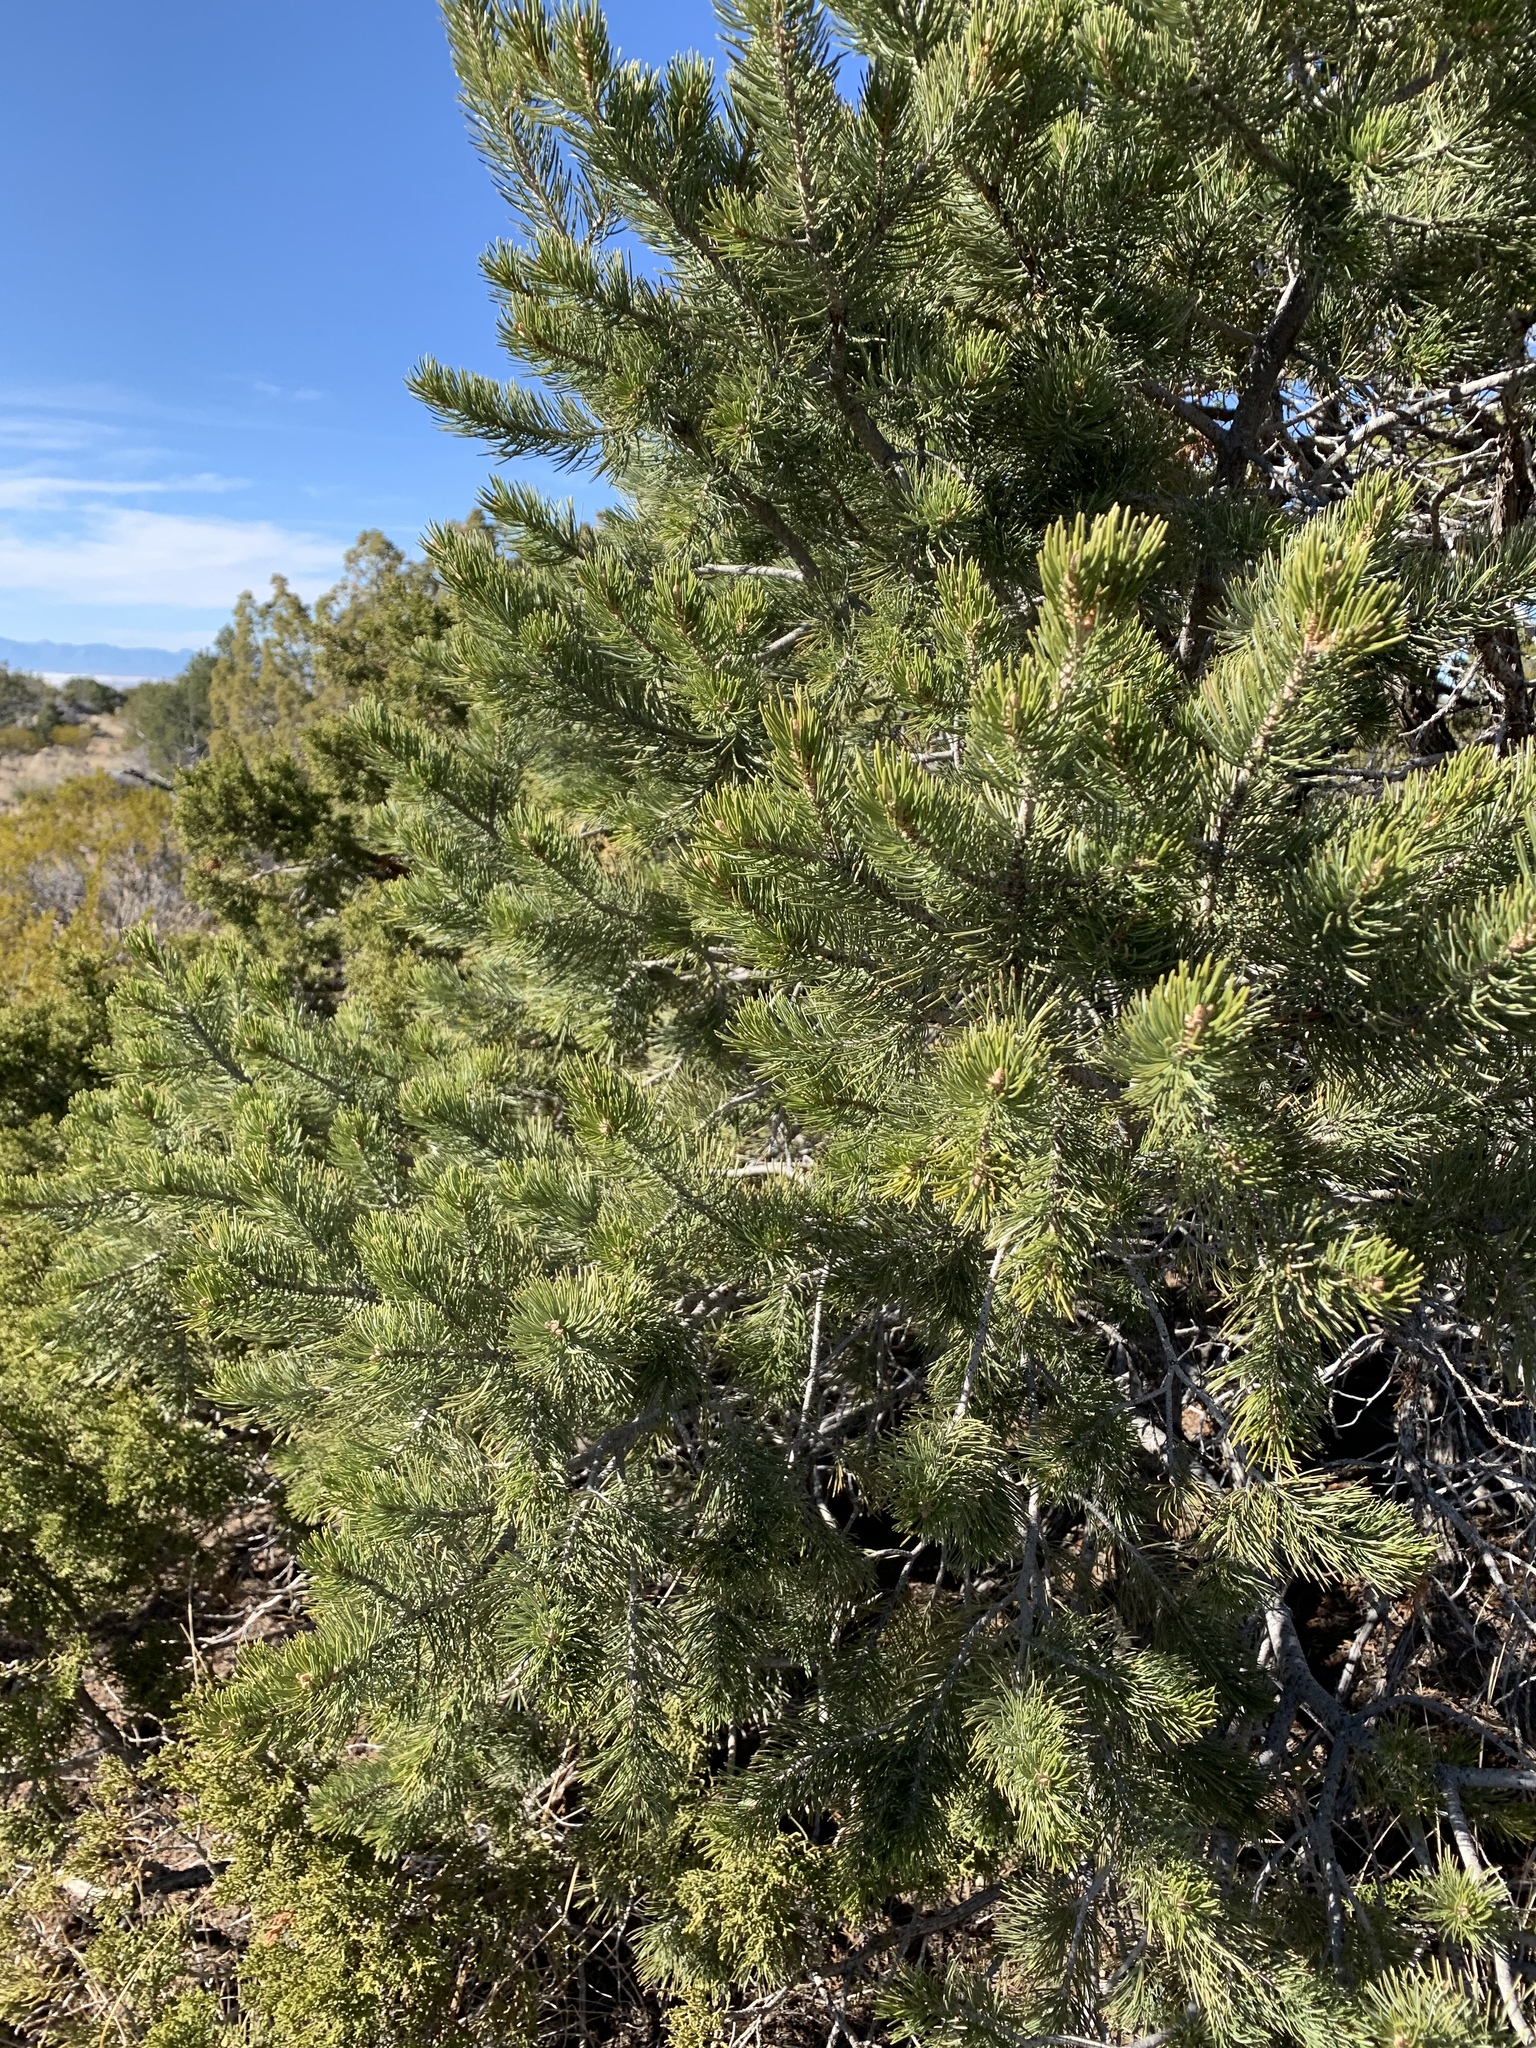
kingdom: Plantae
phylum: Tracheophyta
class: Pinopsida
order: Pinales
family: Pinaceae
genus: Pinus
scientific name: Pinus edulis
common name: Colorado pinyon
